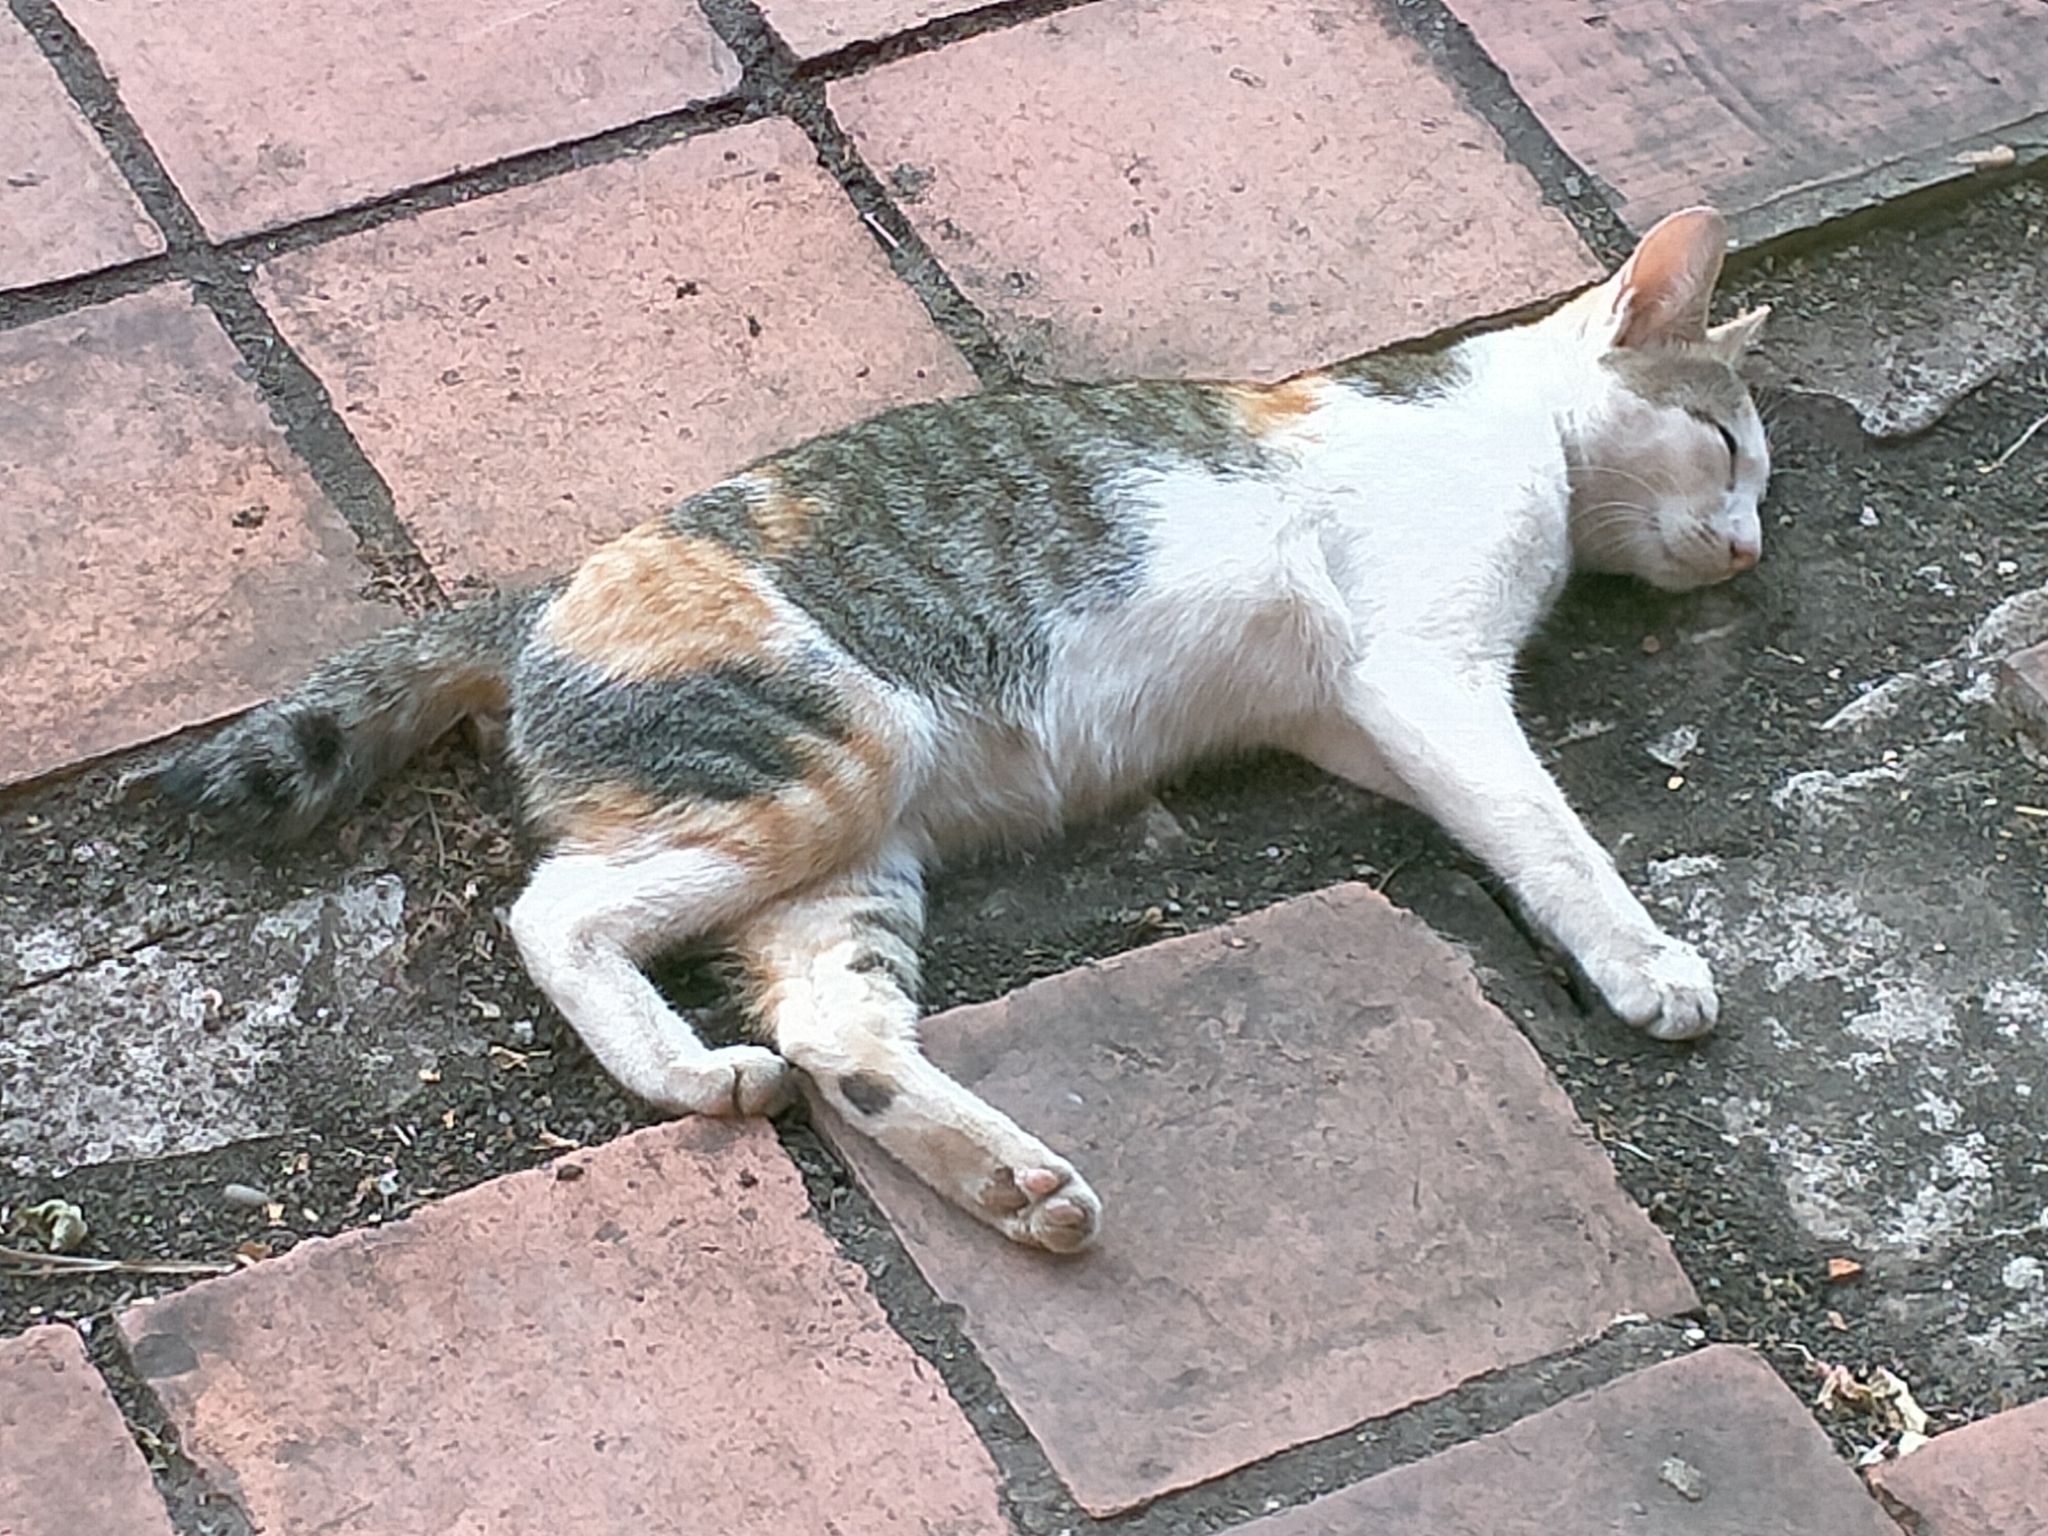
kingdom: Animalia
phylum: Chordata
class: Mammalia
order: Carnivora
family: Felidae
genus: Felis
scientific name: Felis catus
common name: Domestic cat
